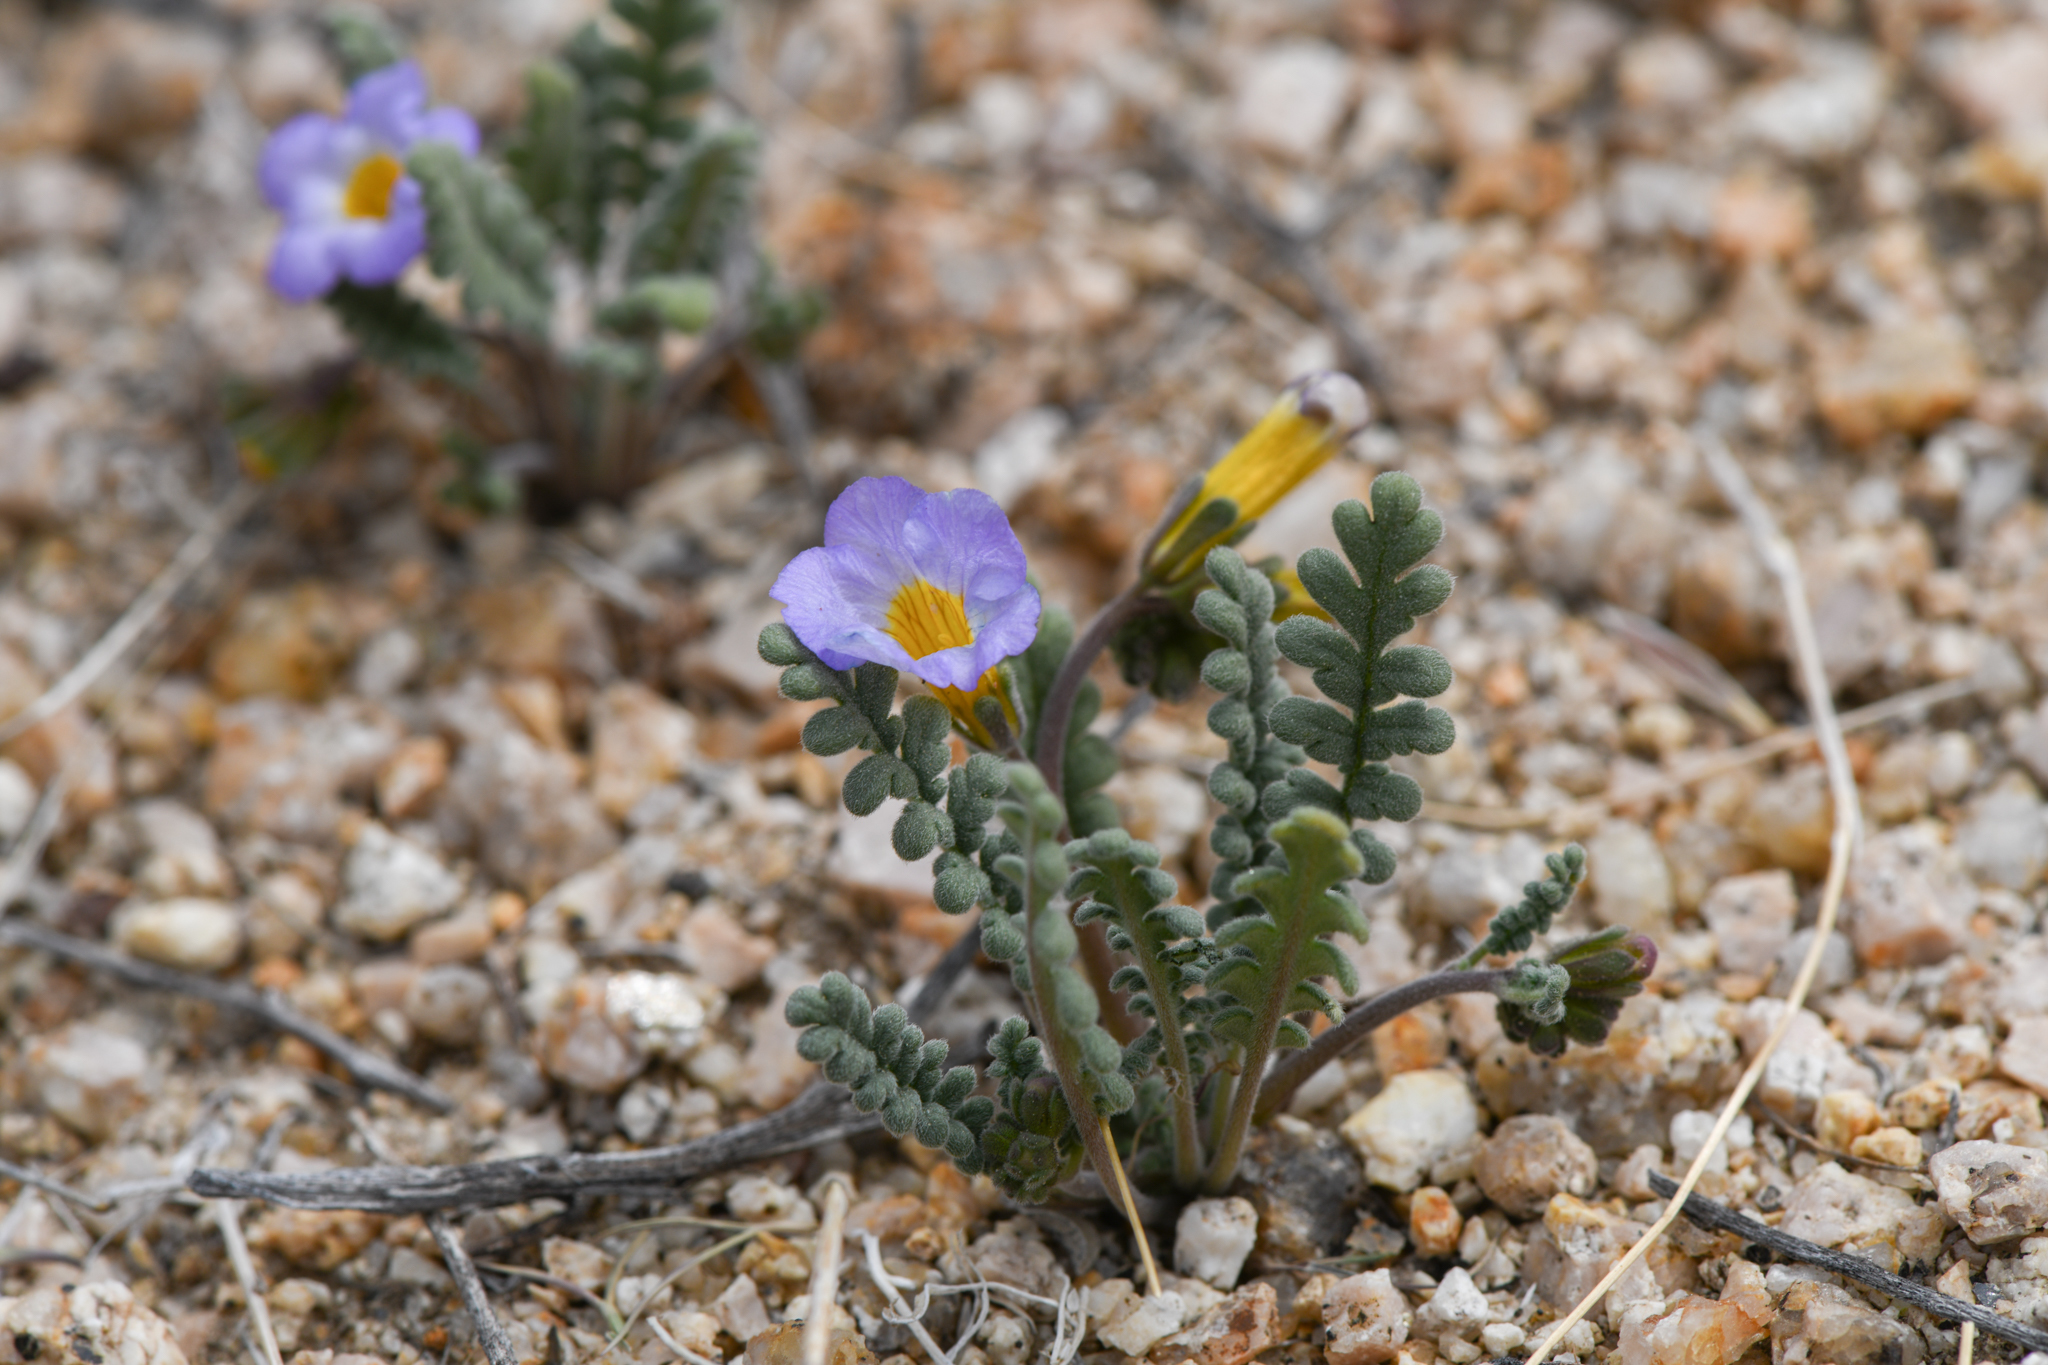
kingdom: Plantae
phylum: Tracheophyta
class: Magnoliopsida
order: Boraginales
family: Hydrophyllaceae
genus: Phacelia
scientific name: Phacelia fremontii
